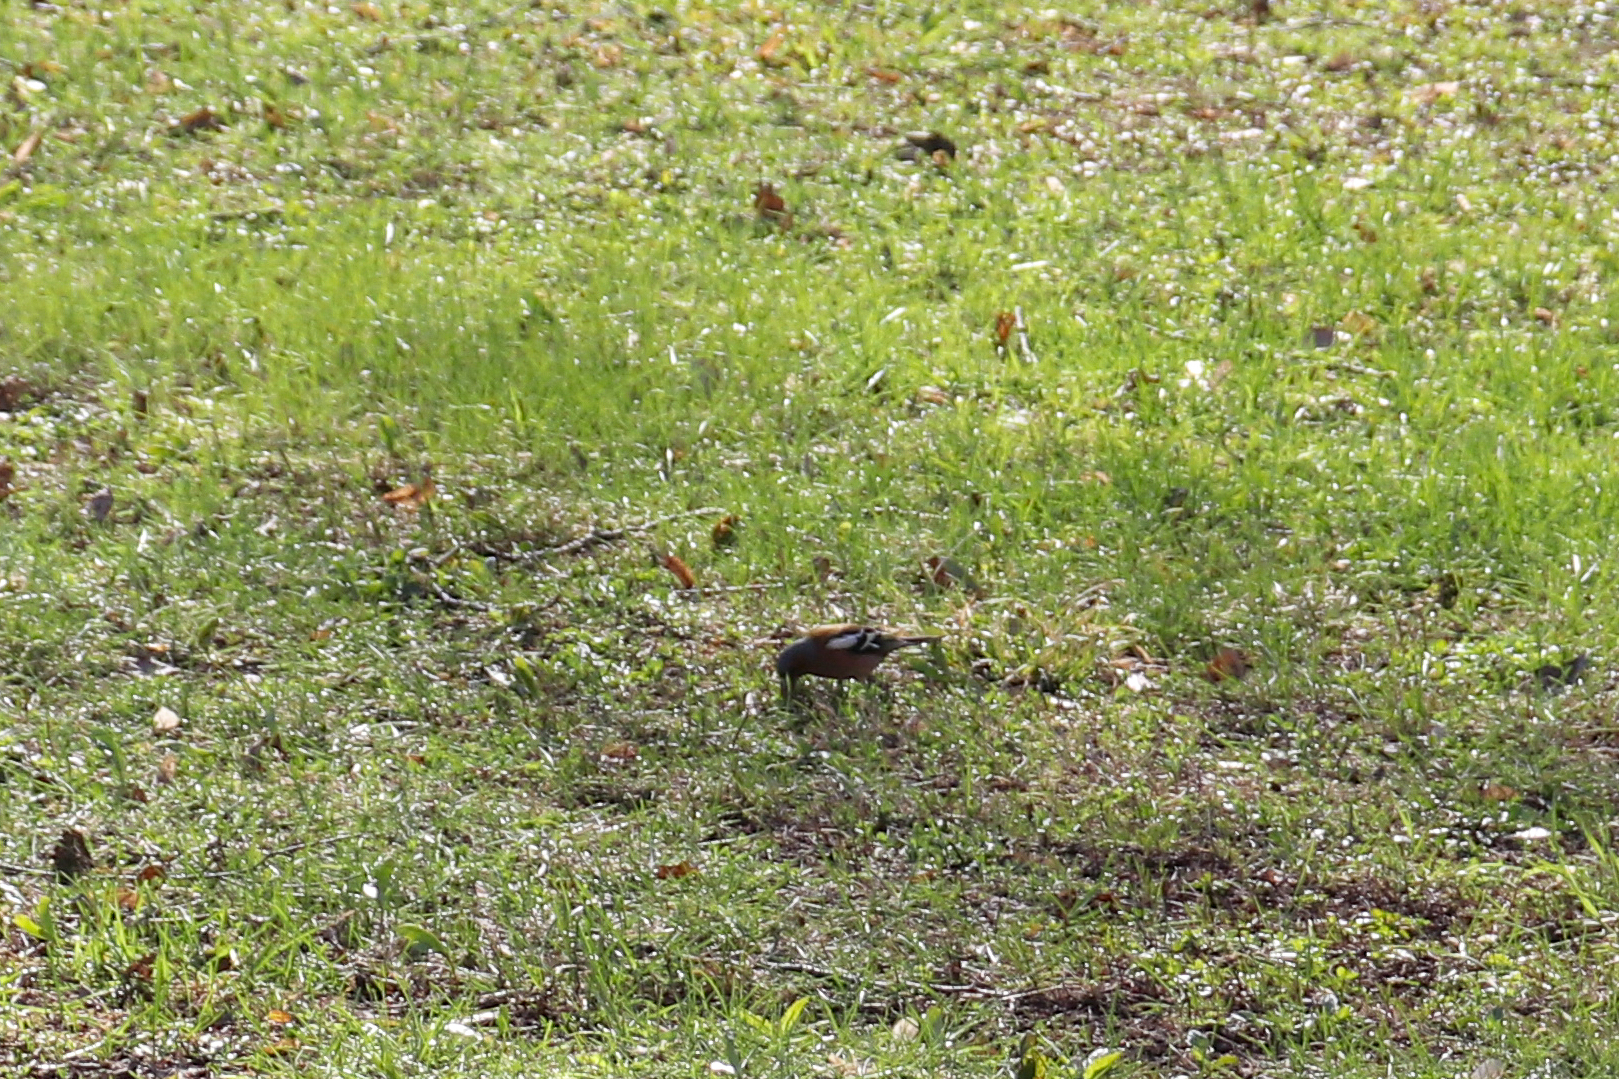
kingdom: Animalia
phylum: Chordata
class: Aves
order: Passeriformes
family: Fringillidae
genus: Fringilla
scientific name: Fringilla coelebs
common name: Common chaffinch
